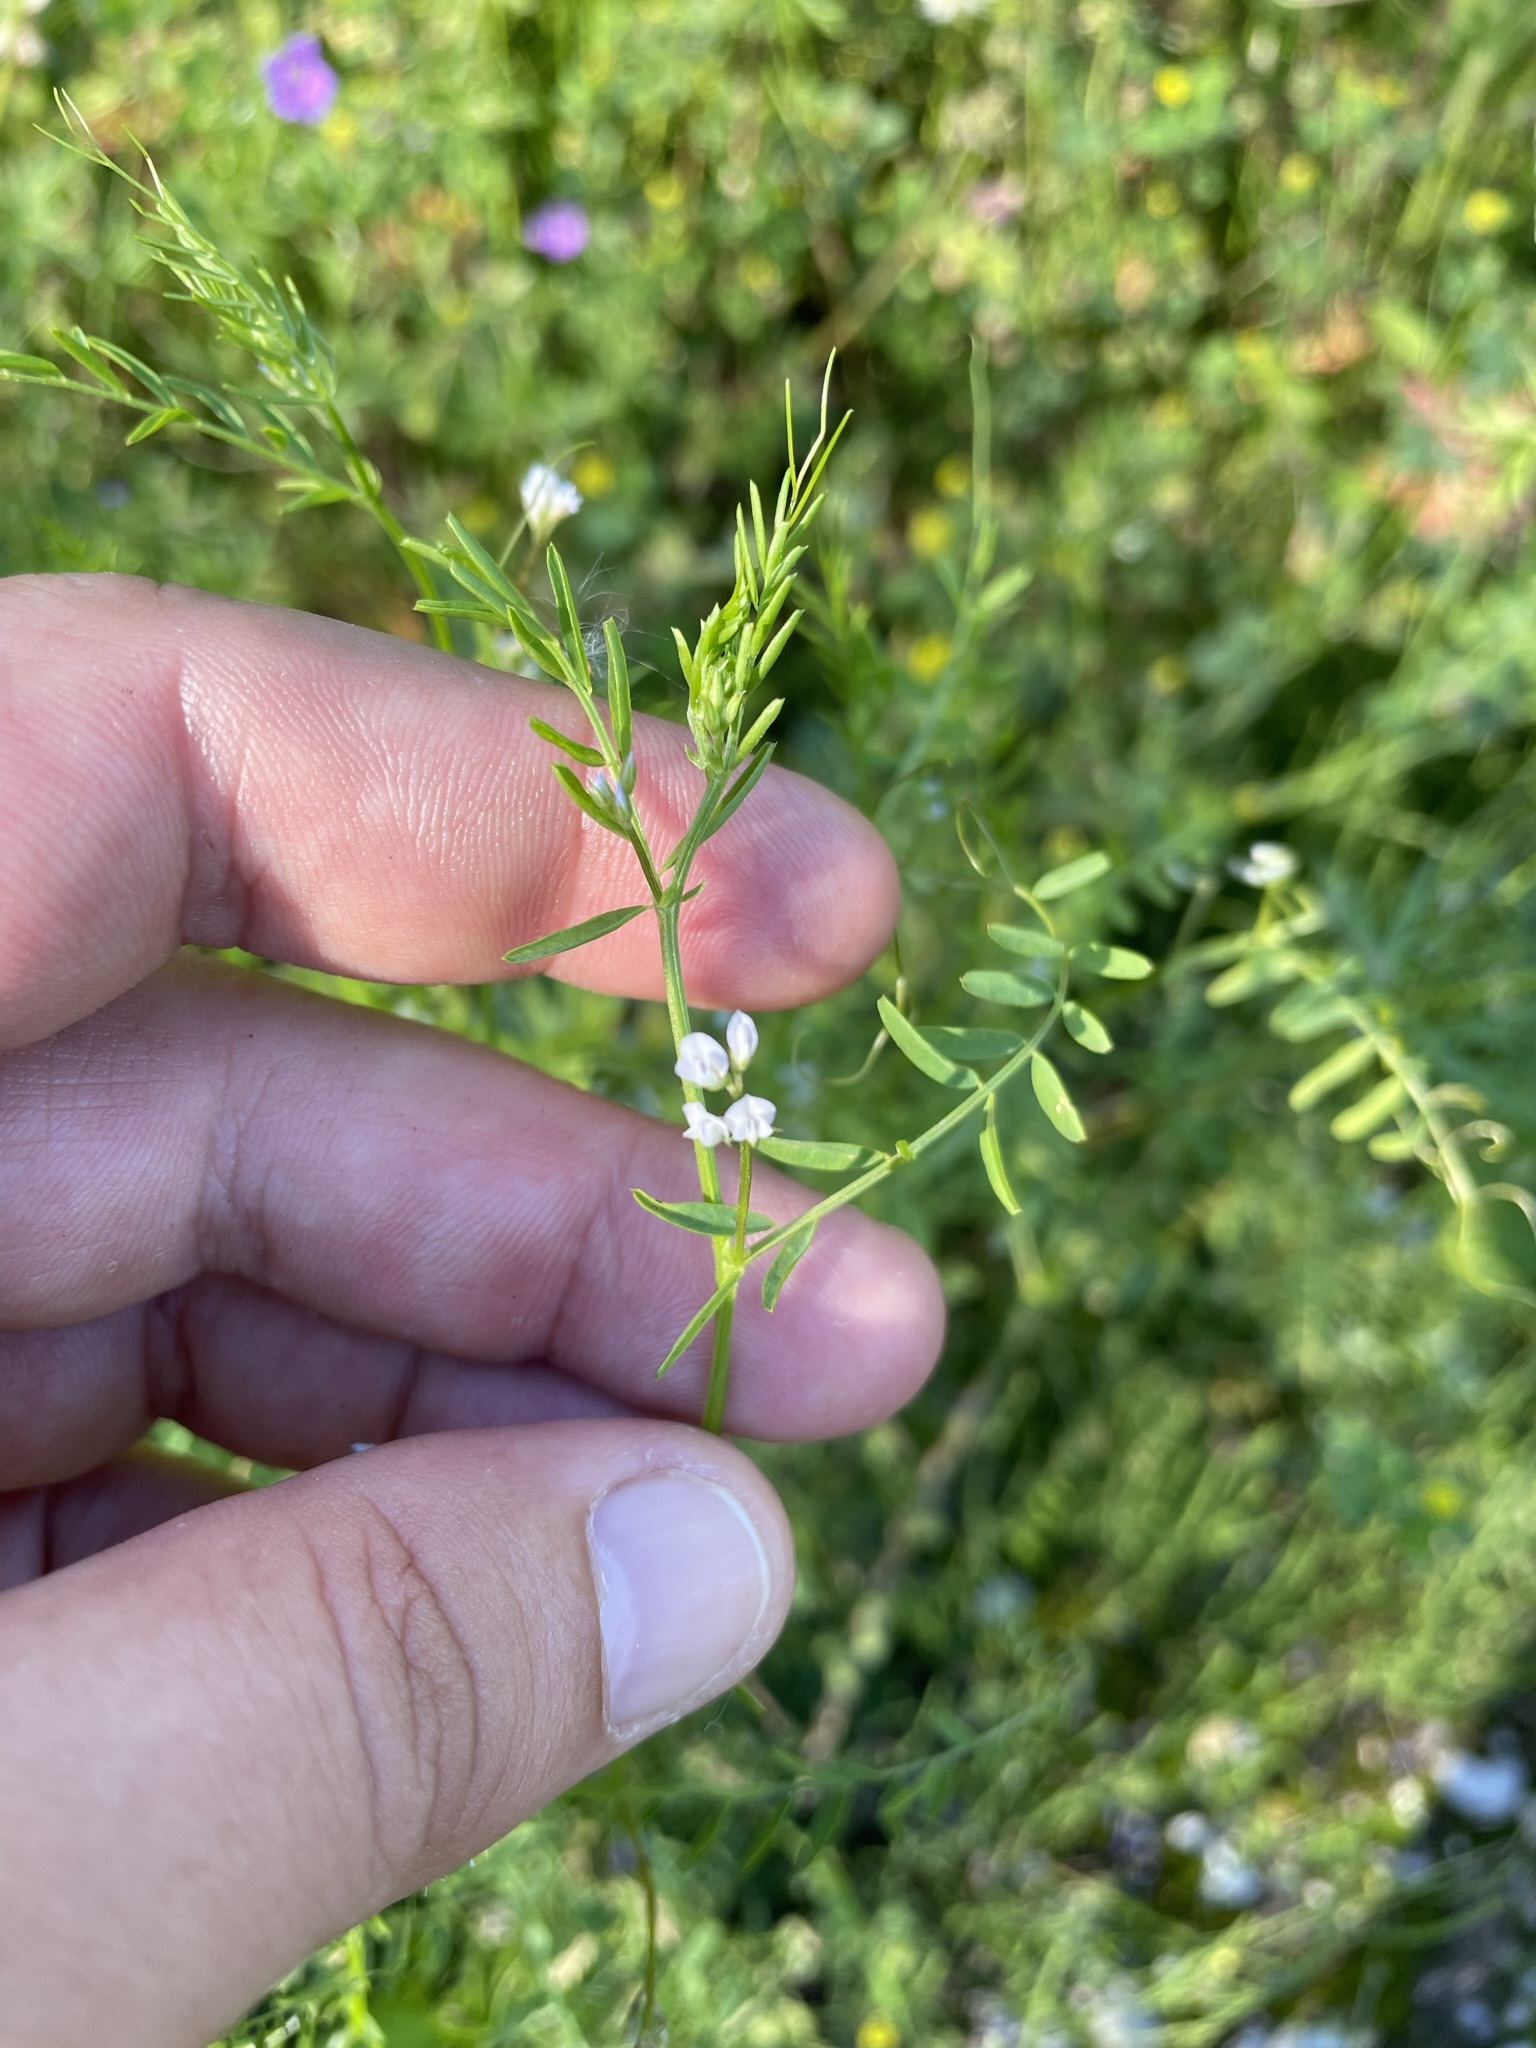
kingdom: Plantae
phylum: Tracheophyta
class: Magnoliopsida
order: Fabales
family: Fabaceae
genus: Vicia
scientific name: Vicia hirsuta
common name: Tiny vetch
